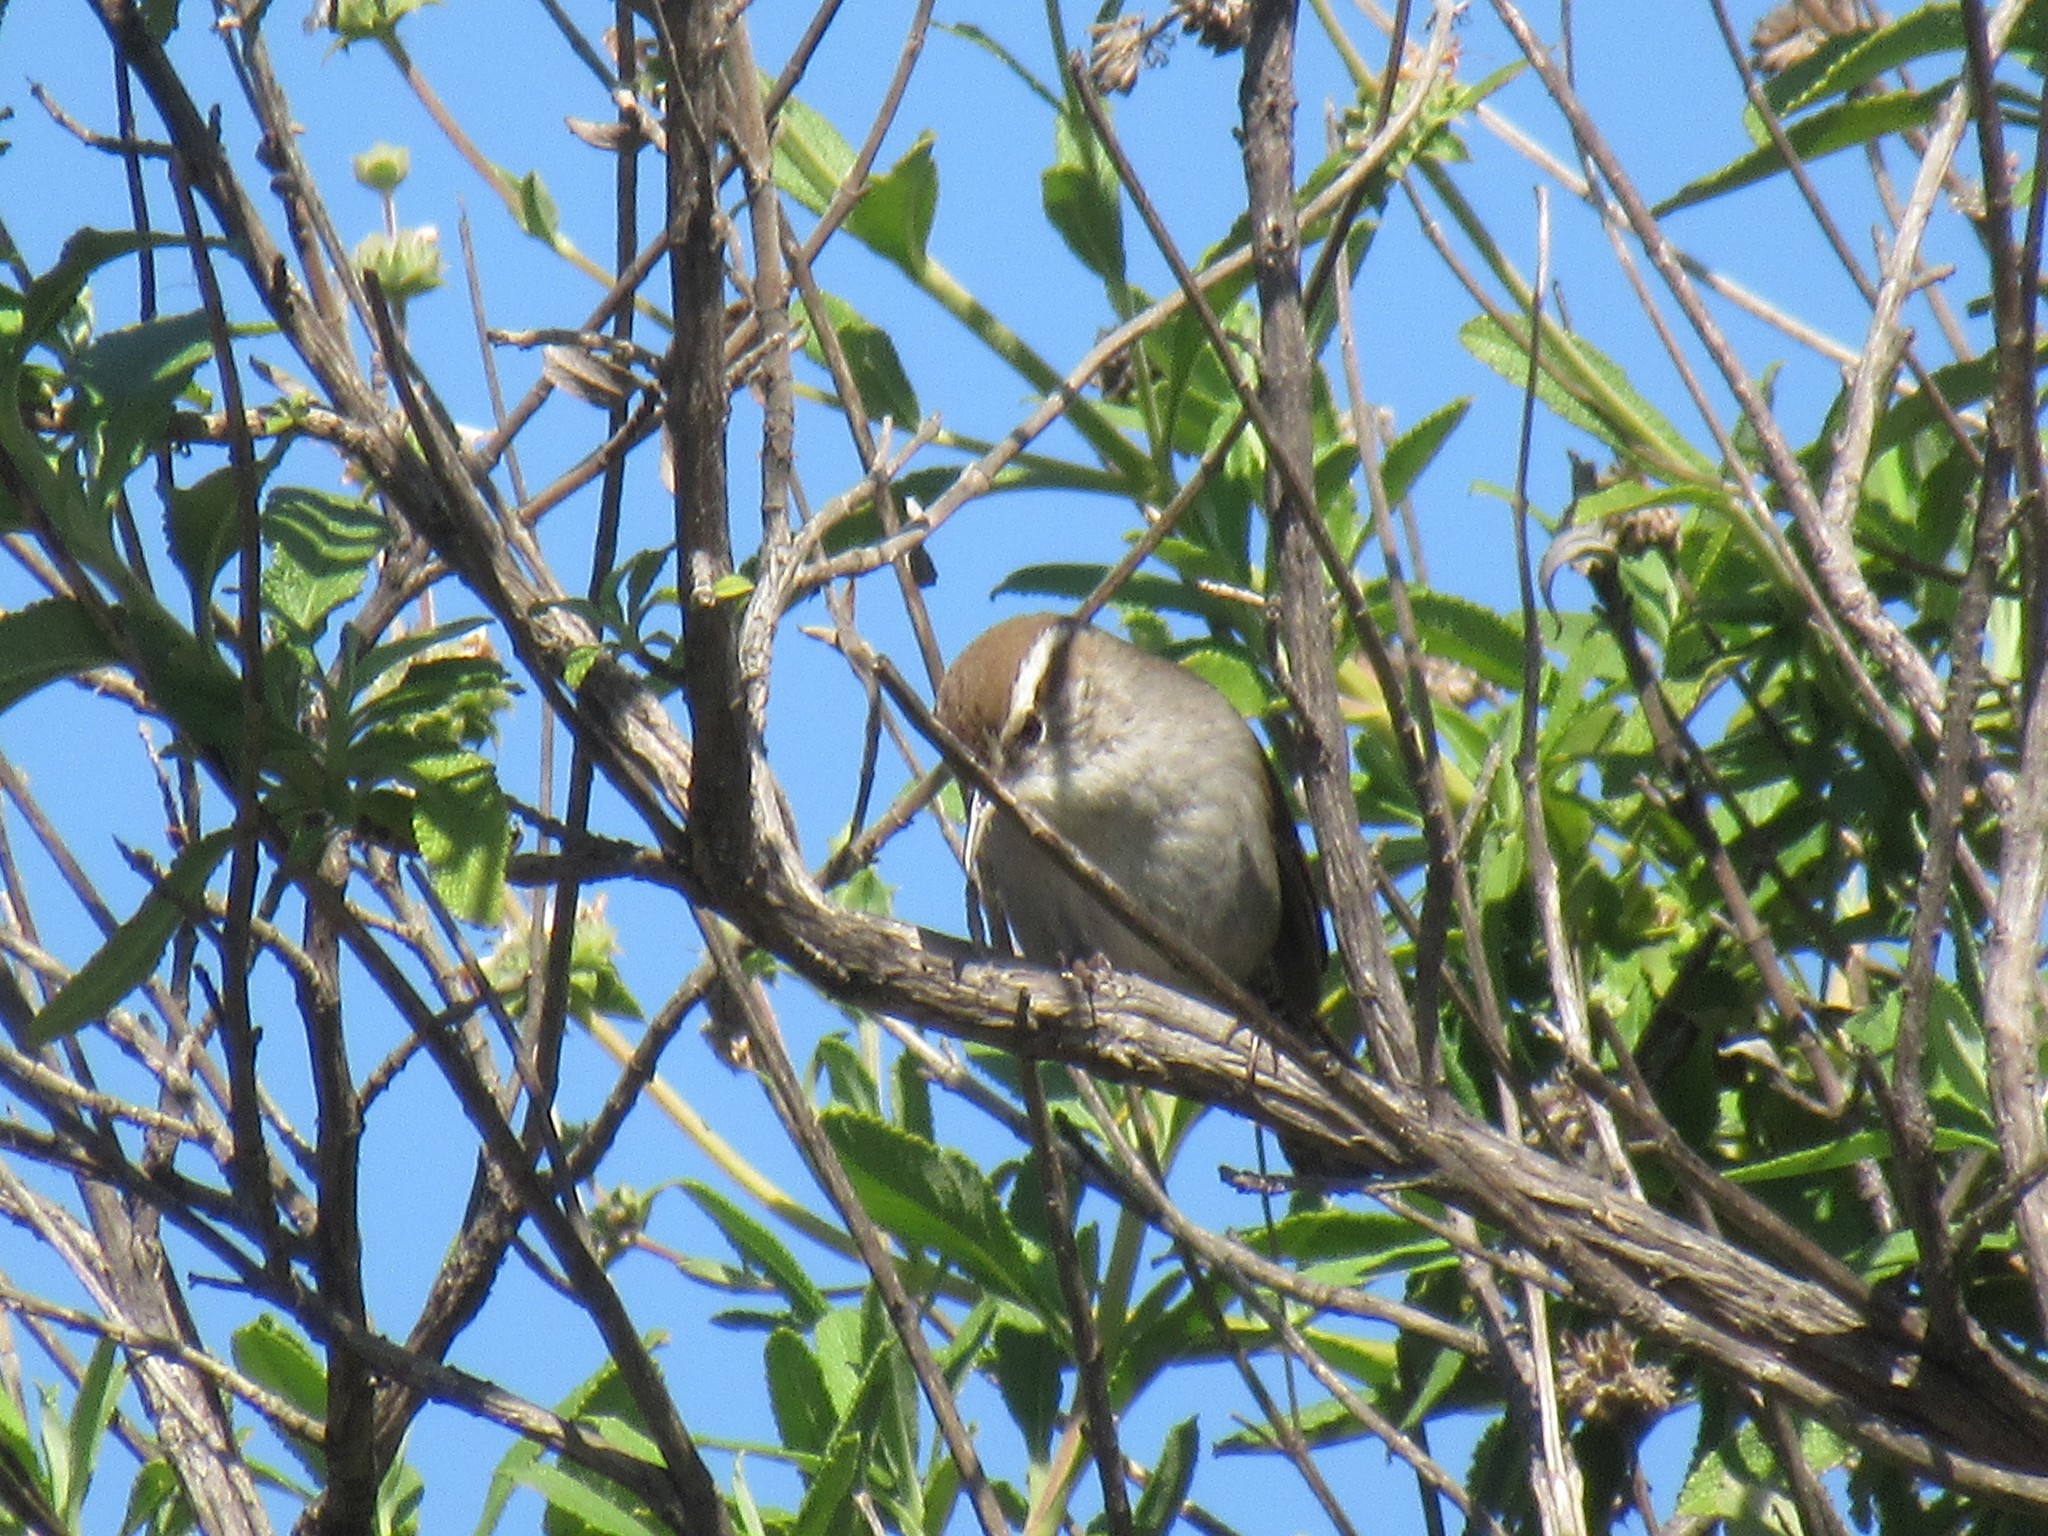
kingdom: Animalia
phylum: Chordata
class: Aves
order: Passeriformes
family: Troglodytidae
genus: Thryomanes
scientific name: Thryomanes bewickii
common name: Bewick's wren
